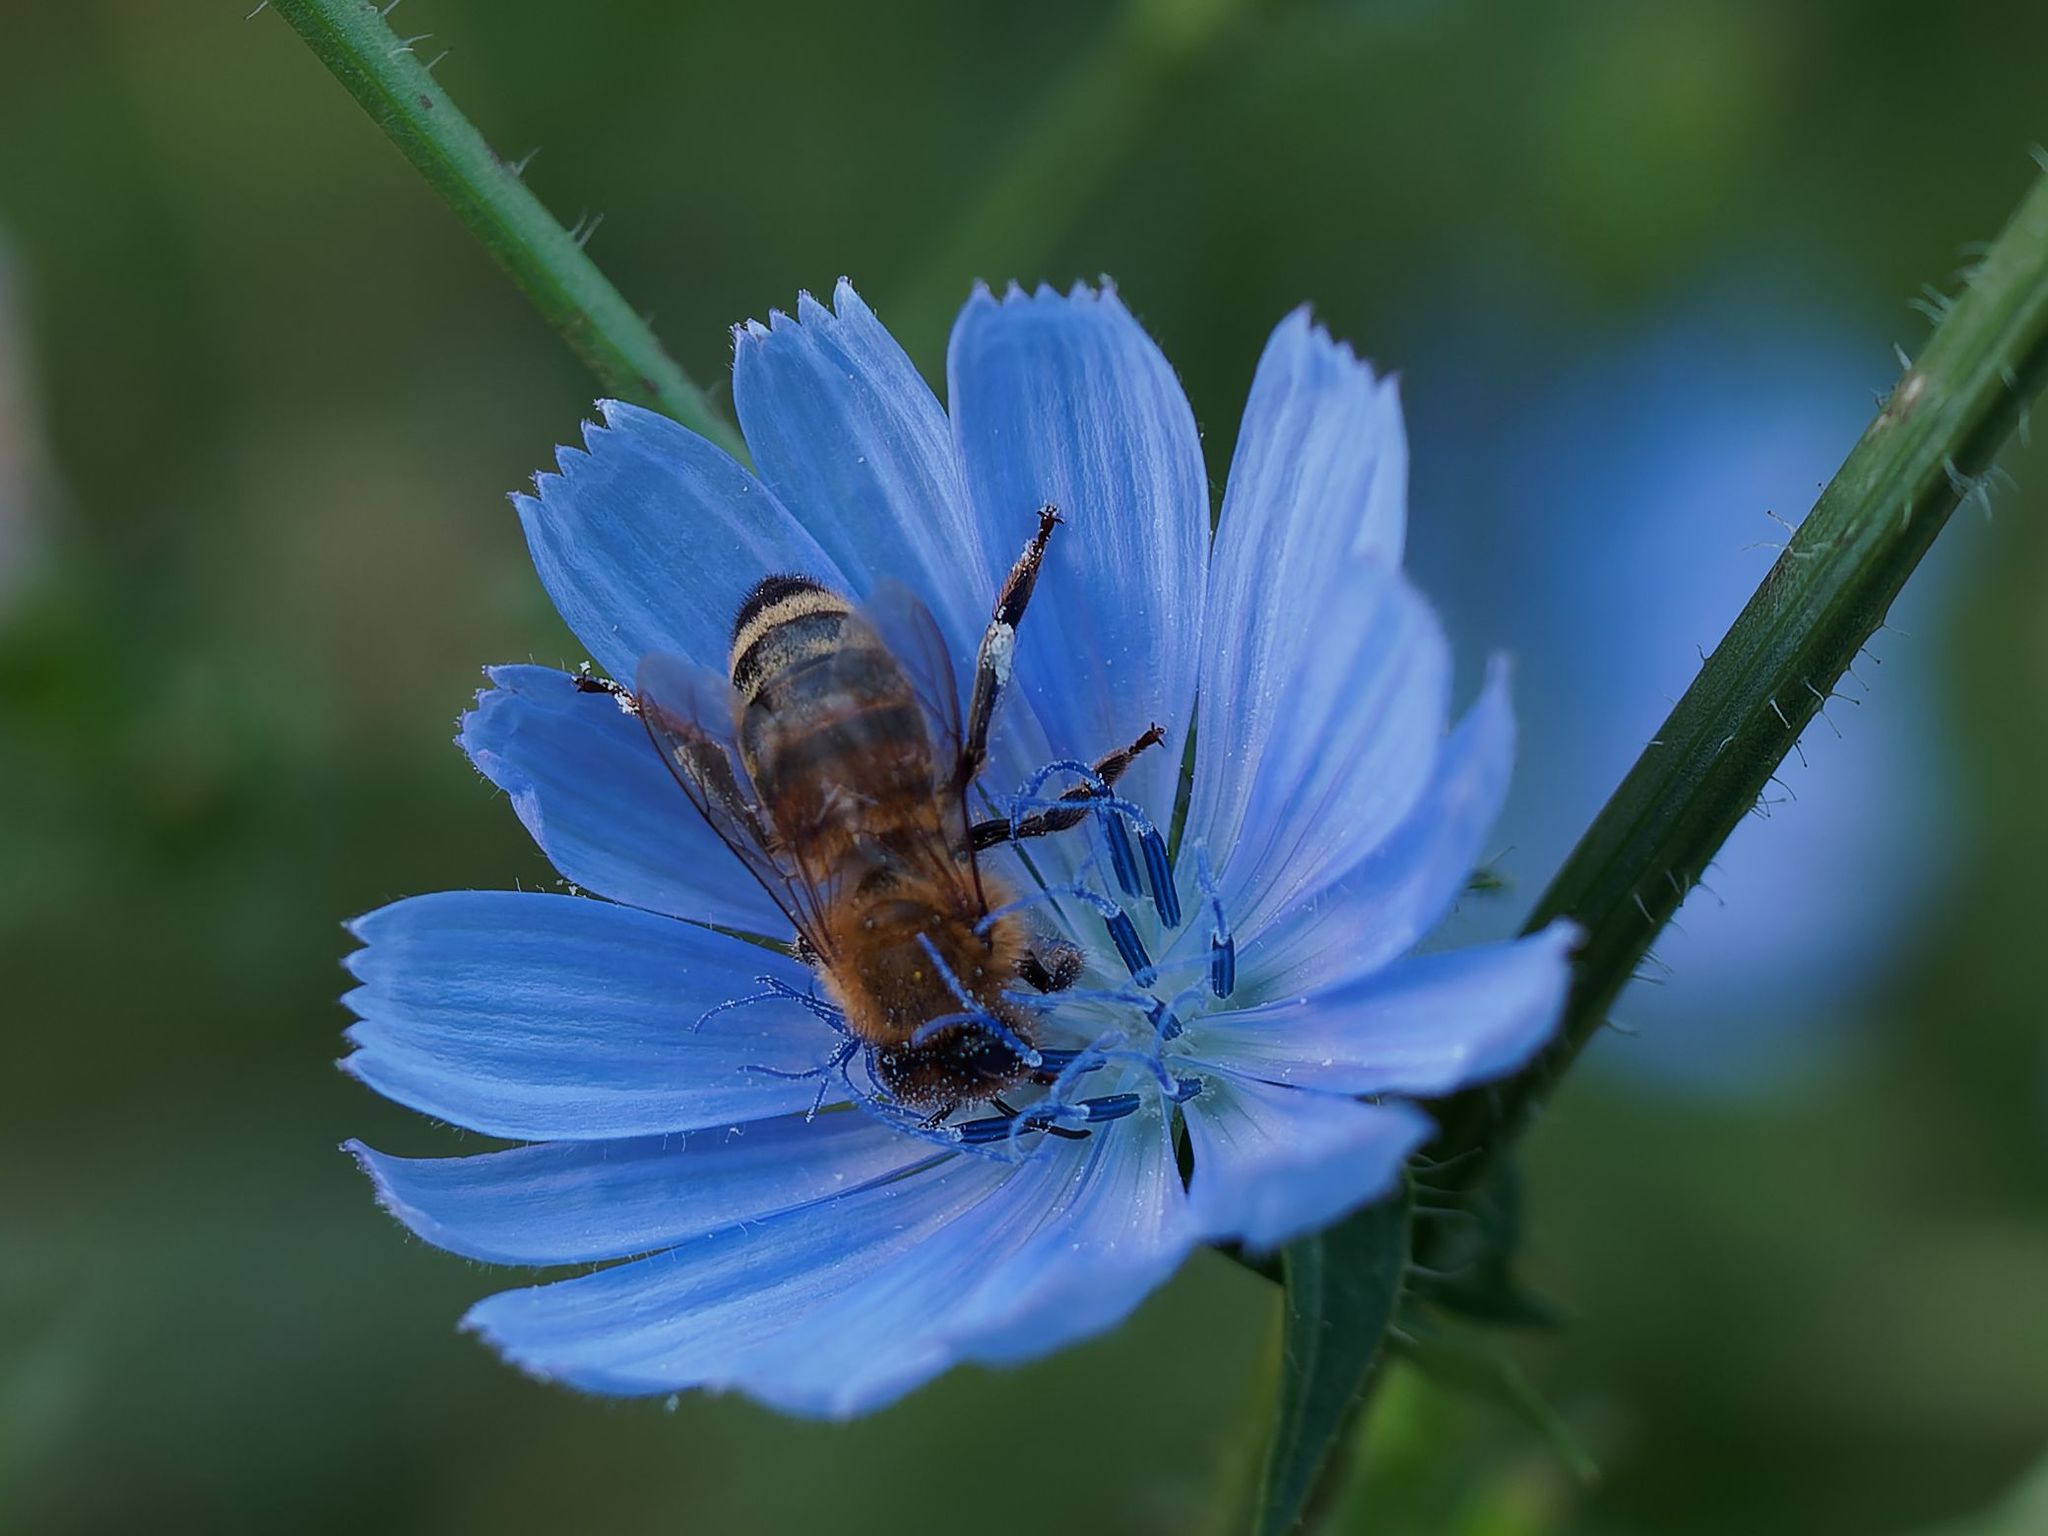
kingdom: Animalia
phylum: Arthropoda
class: Insecta
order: Hymenoptera
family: Apidae
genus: Apis
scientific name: Apis mellifera
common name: Honey bee
